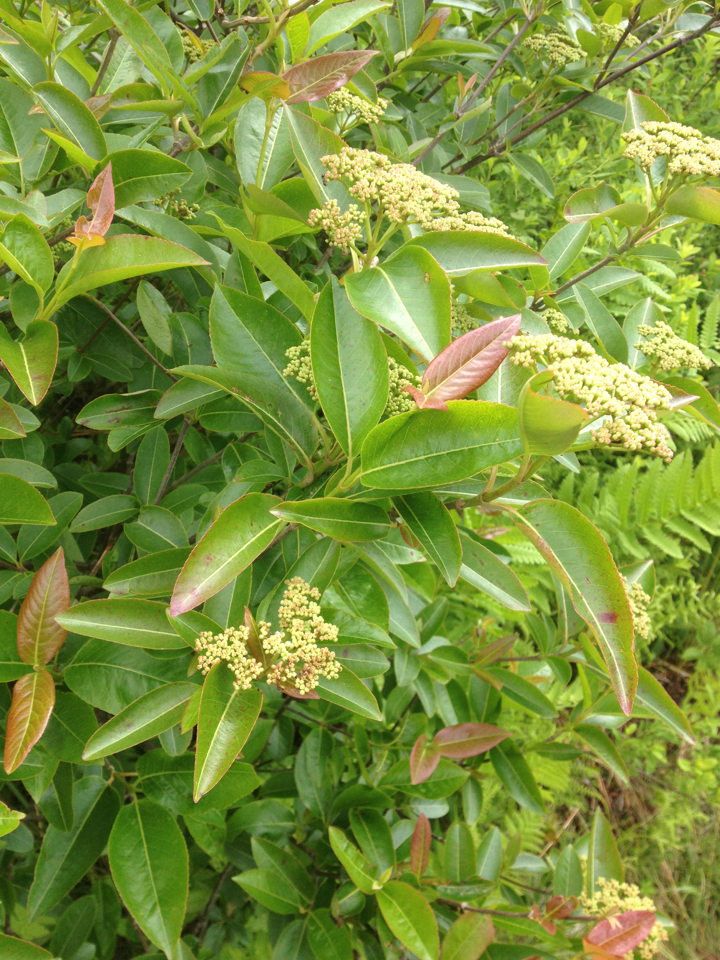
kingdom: Plantae
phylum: Tracheophyta
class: Magnoliopsida
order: Dipsacales
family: Viburnaceae
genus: Viburnum
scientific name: Viburnum cassinoides
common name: Swamp haw
